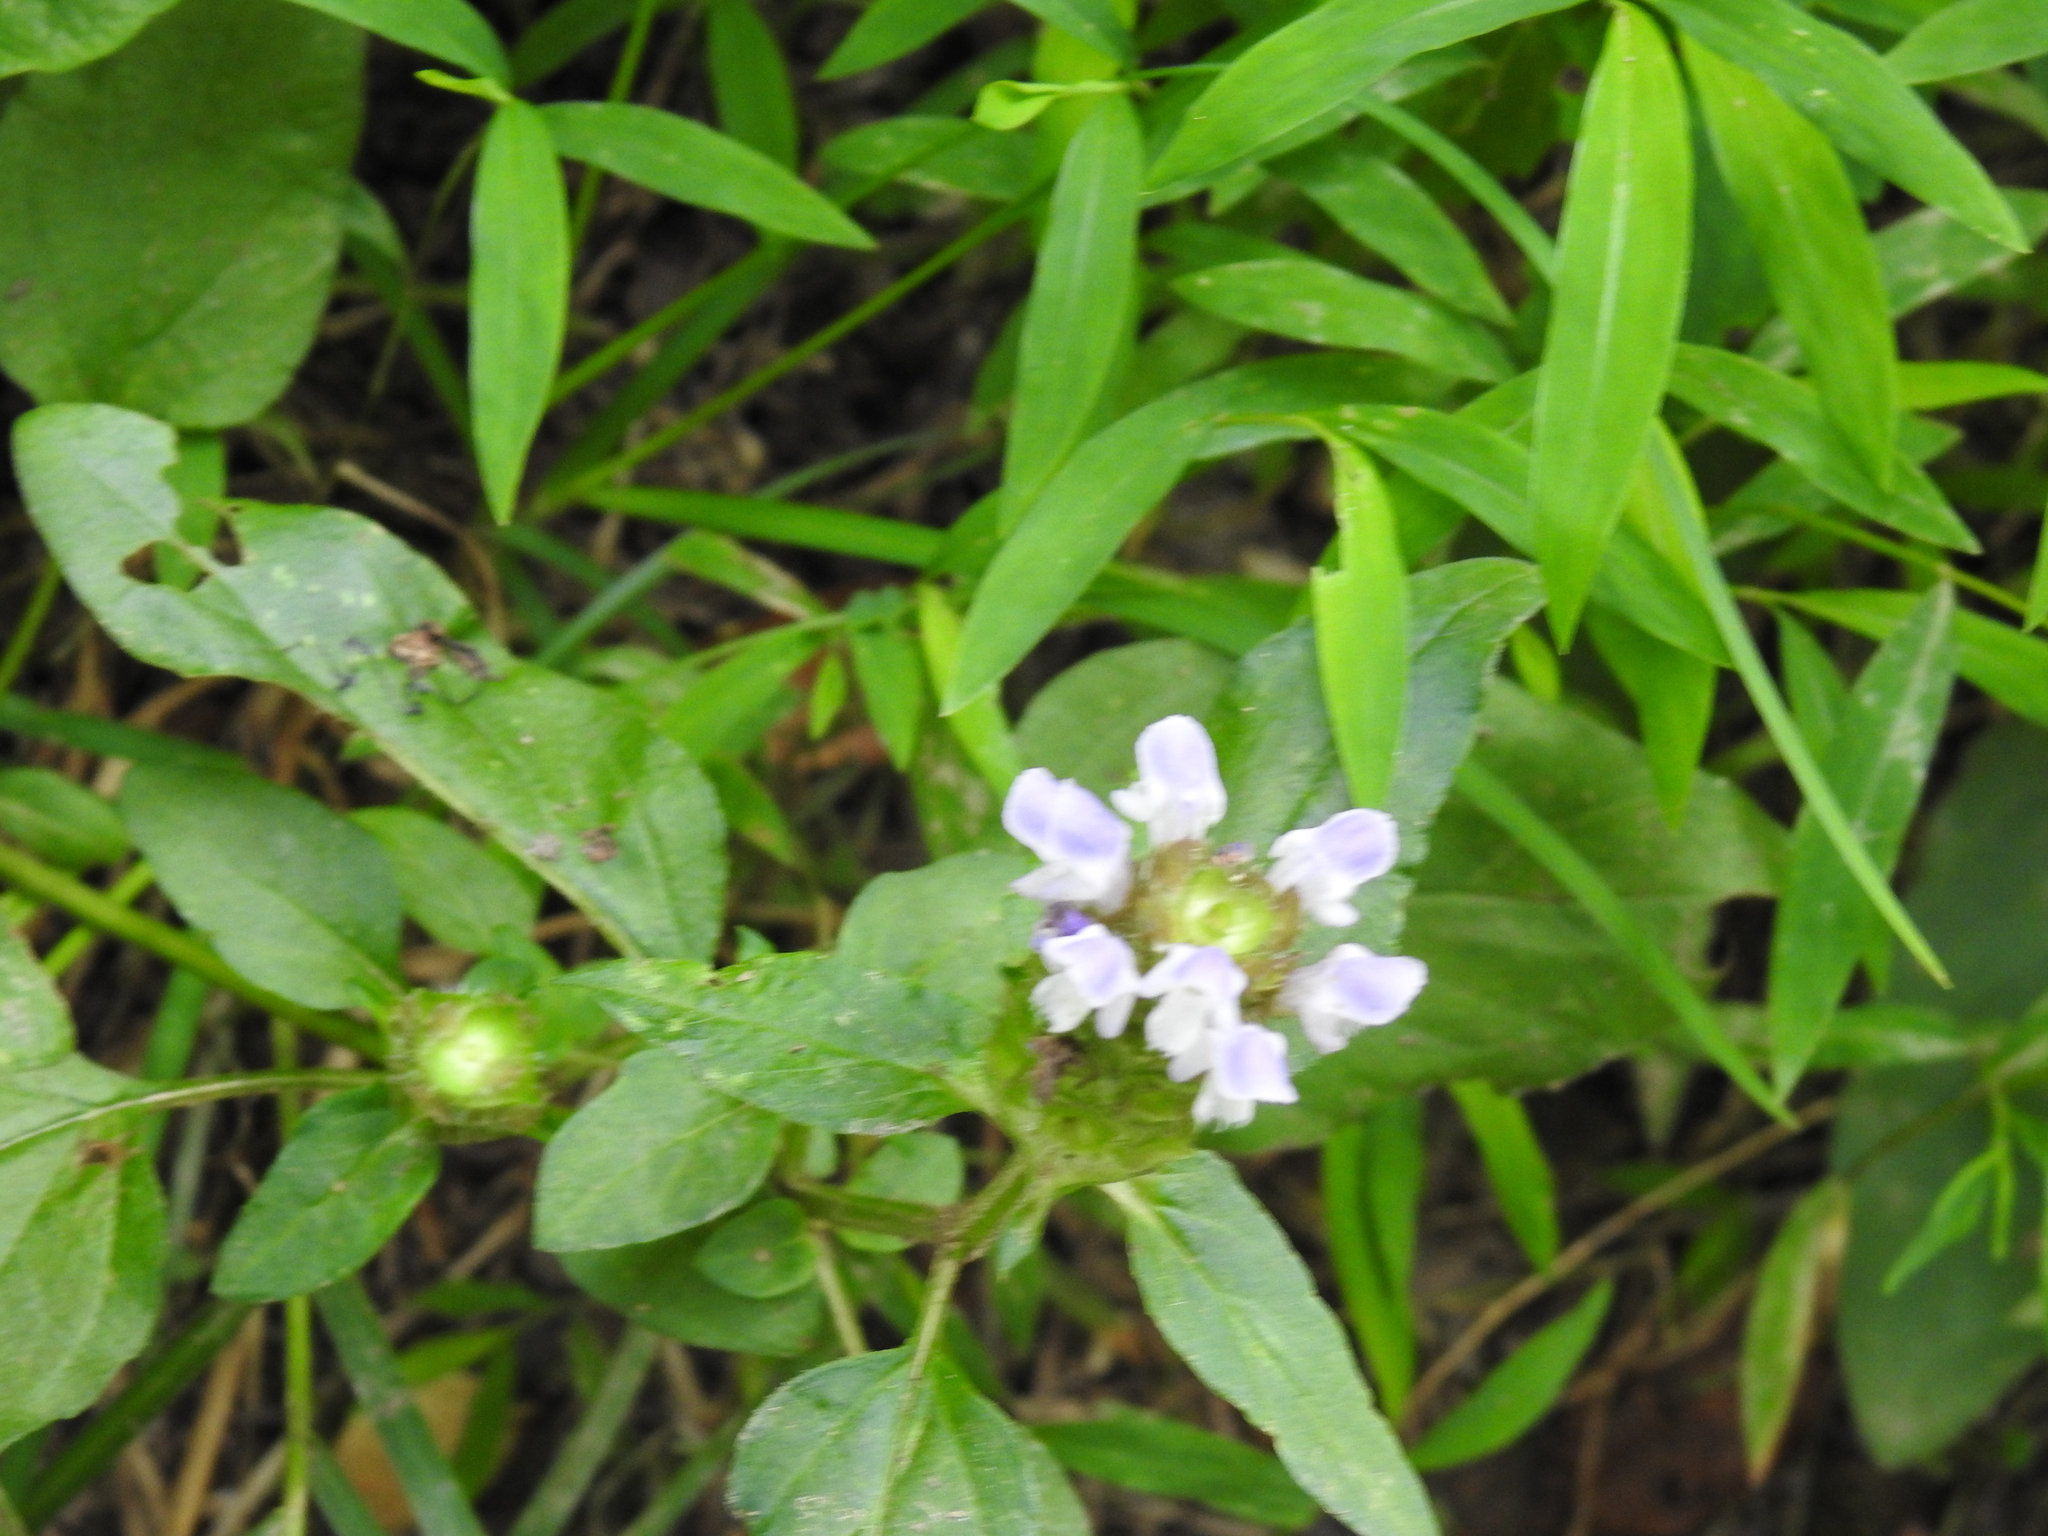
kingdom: Plantae
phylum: Tracheophyta
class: Magnoliopsida
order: Lamiales
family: Lamiaceae
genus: Prunella
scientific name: Prunella vulgaris
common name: Heal-all
